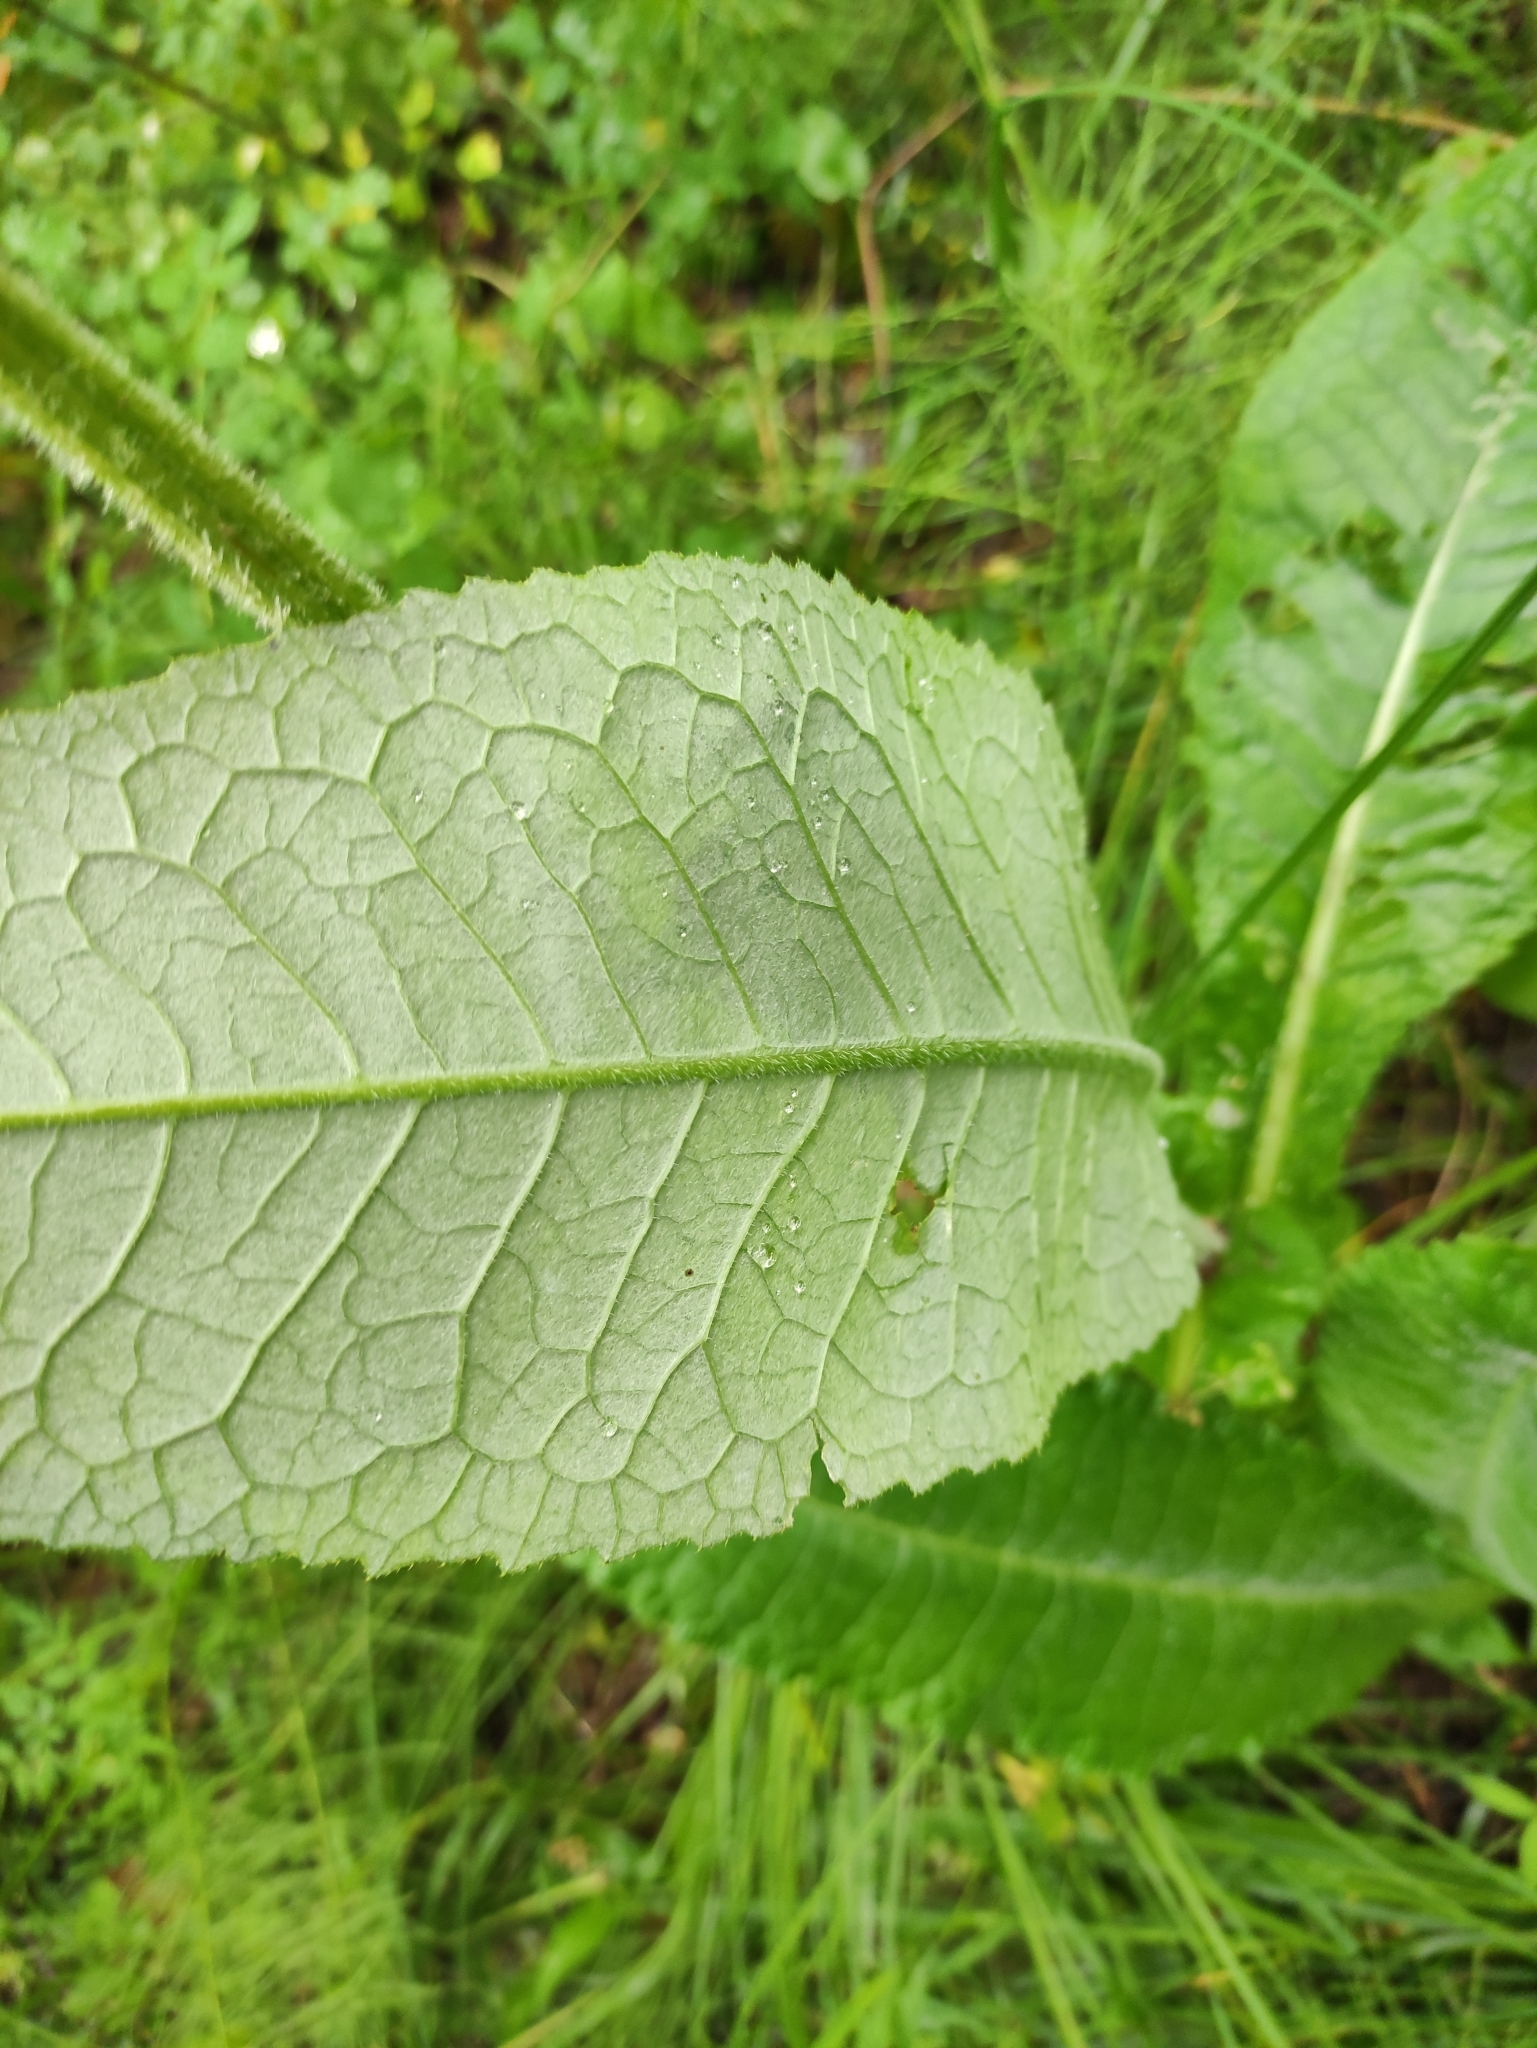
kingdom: Plantae
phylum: Tracheophyta
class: Magnoliopsida
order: Asterales
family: Asteraceae
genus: Cirsium
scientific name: Cirsium helenioides
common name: Melancholy thistle
